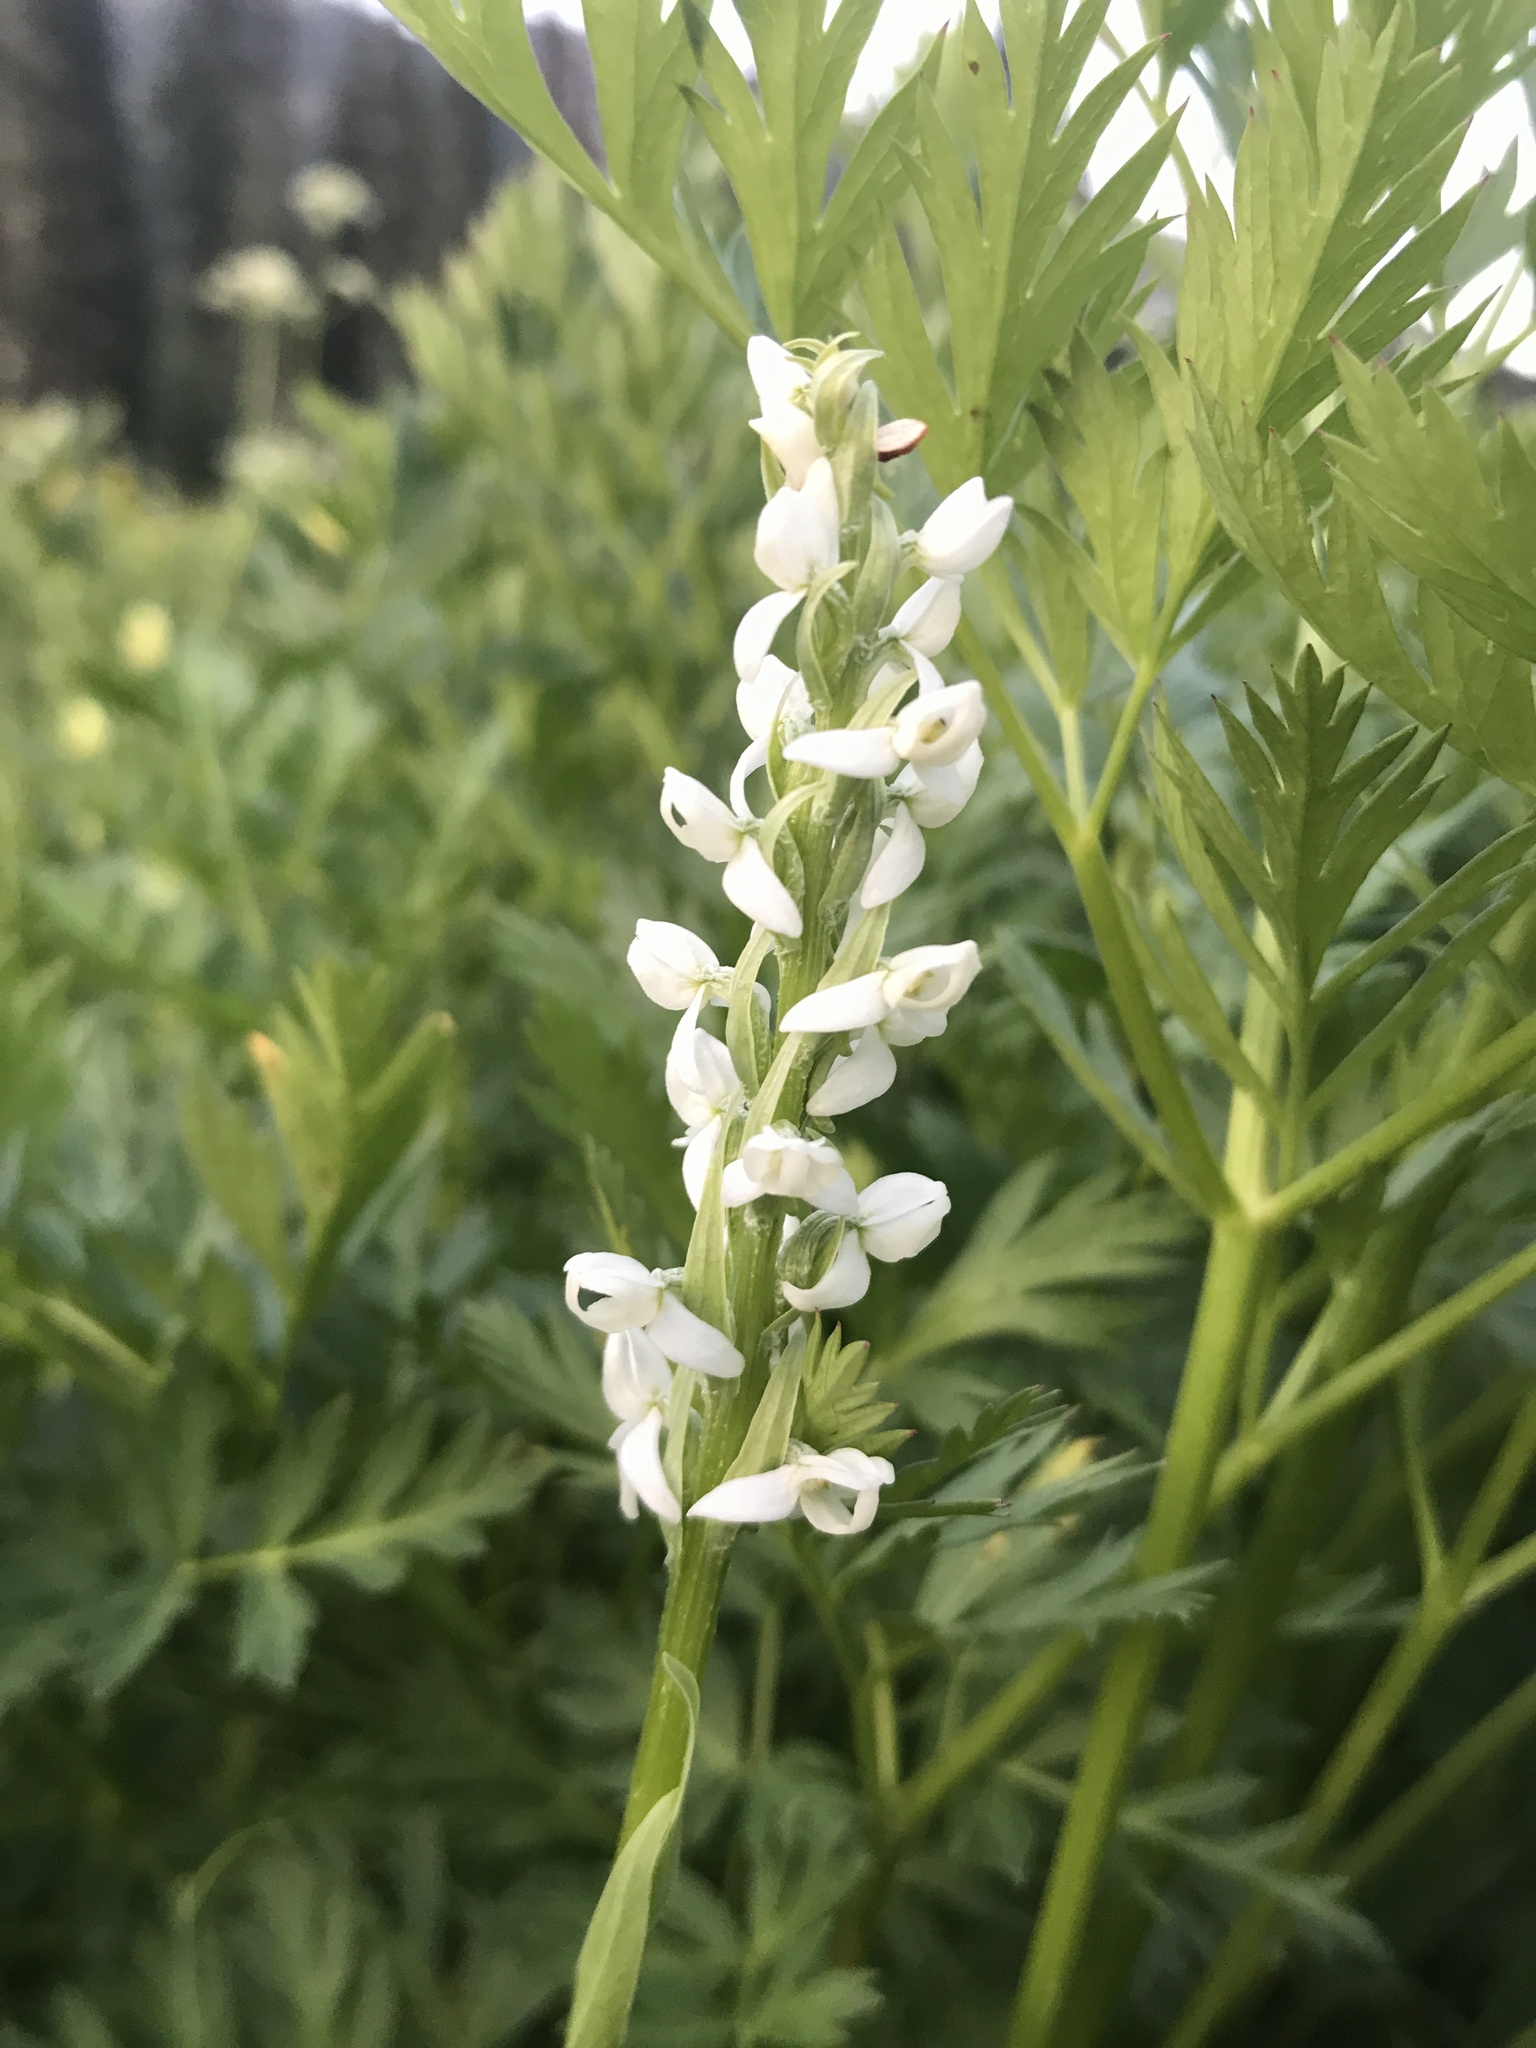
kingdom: Plantae
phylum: Tracheophyta
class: Liliopsida
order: Asparagales
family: Orchidaceae
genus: Platanthera
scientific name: Platanthera dilatata
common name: Bog candles
